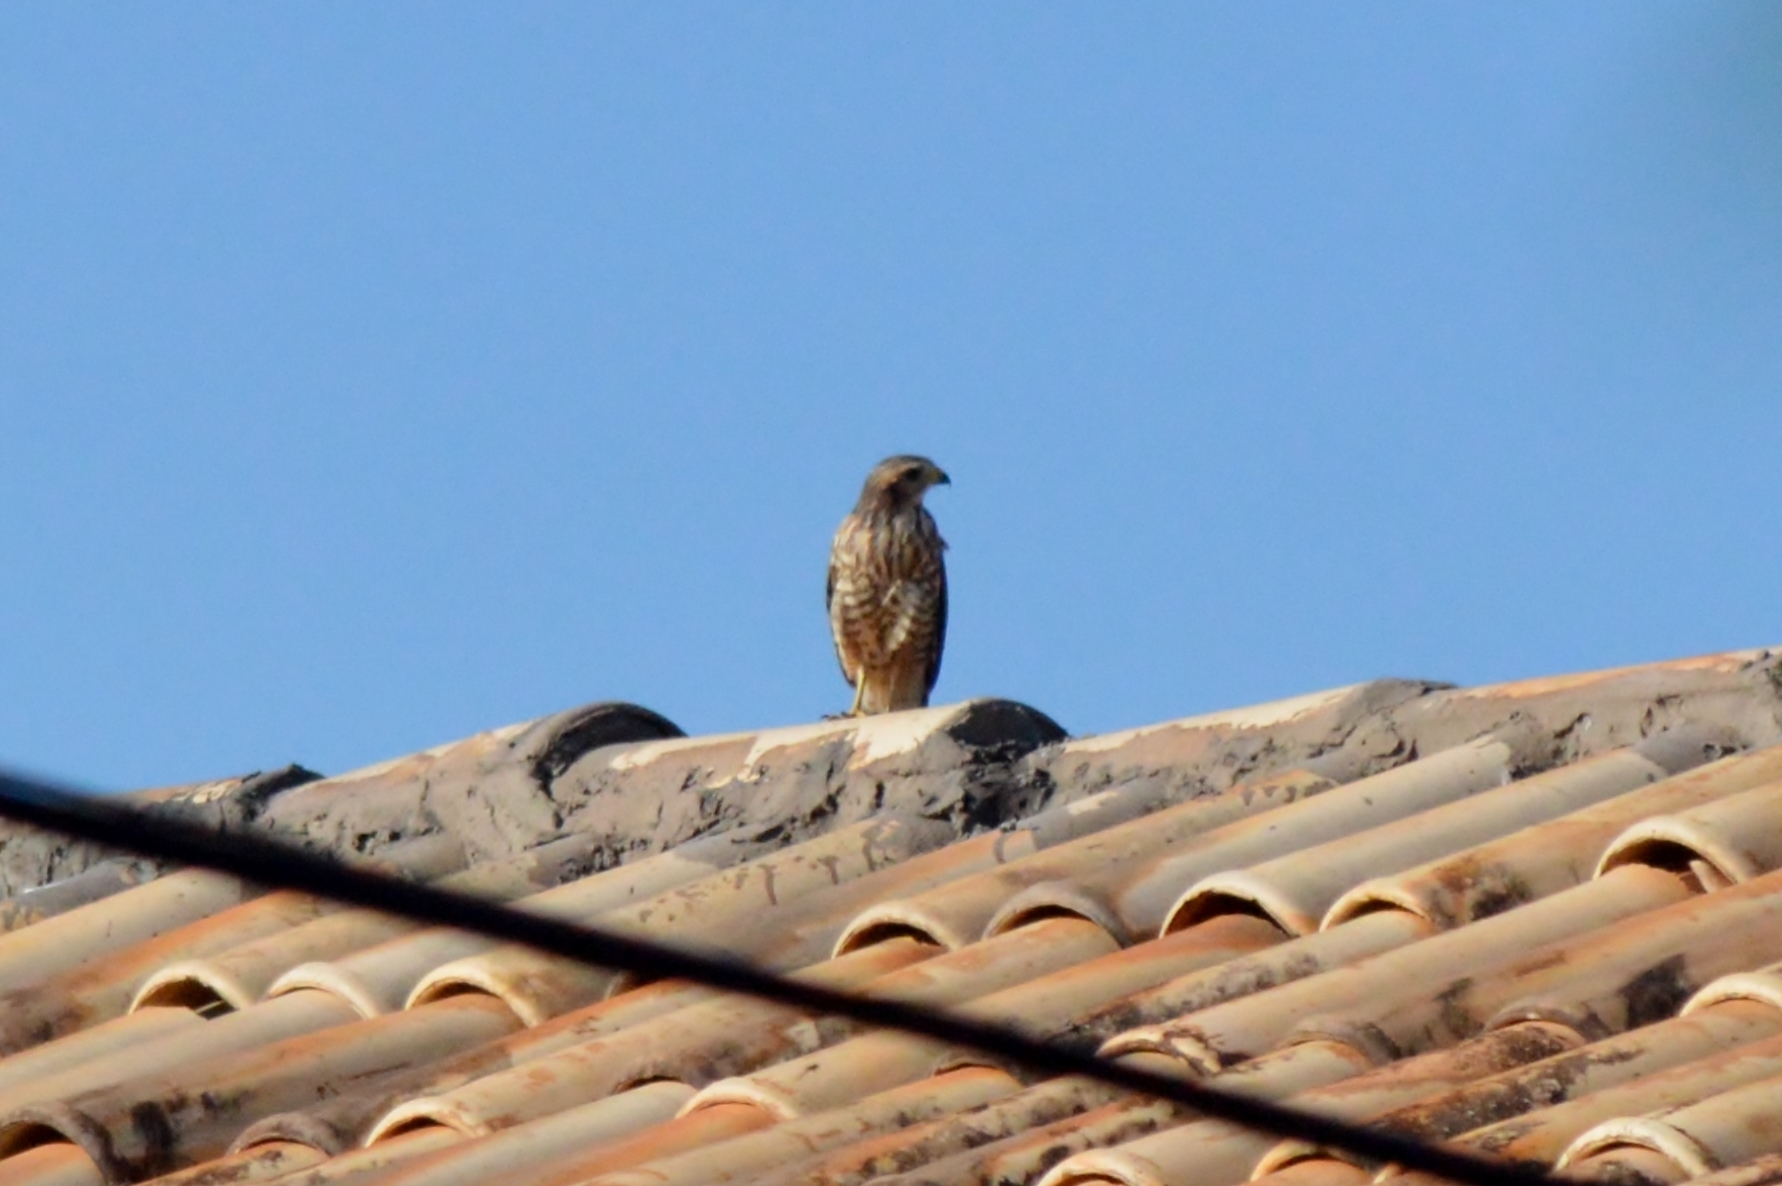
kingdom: Animalia
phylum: Chordata
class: Aves
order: Accipitriformes
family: Accipitridae
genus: Rupornis
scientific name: Rupornis magnirostris
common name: Roadside hawk
